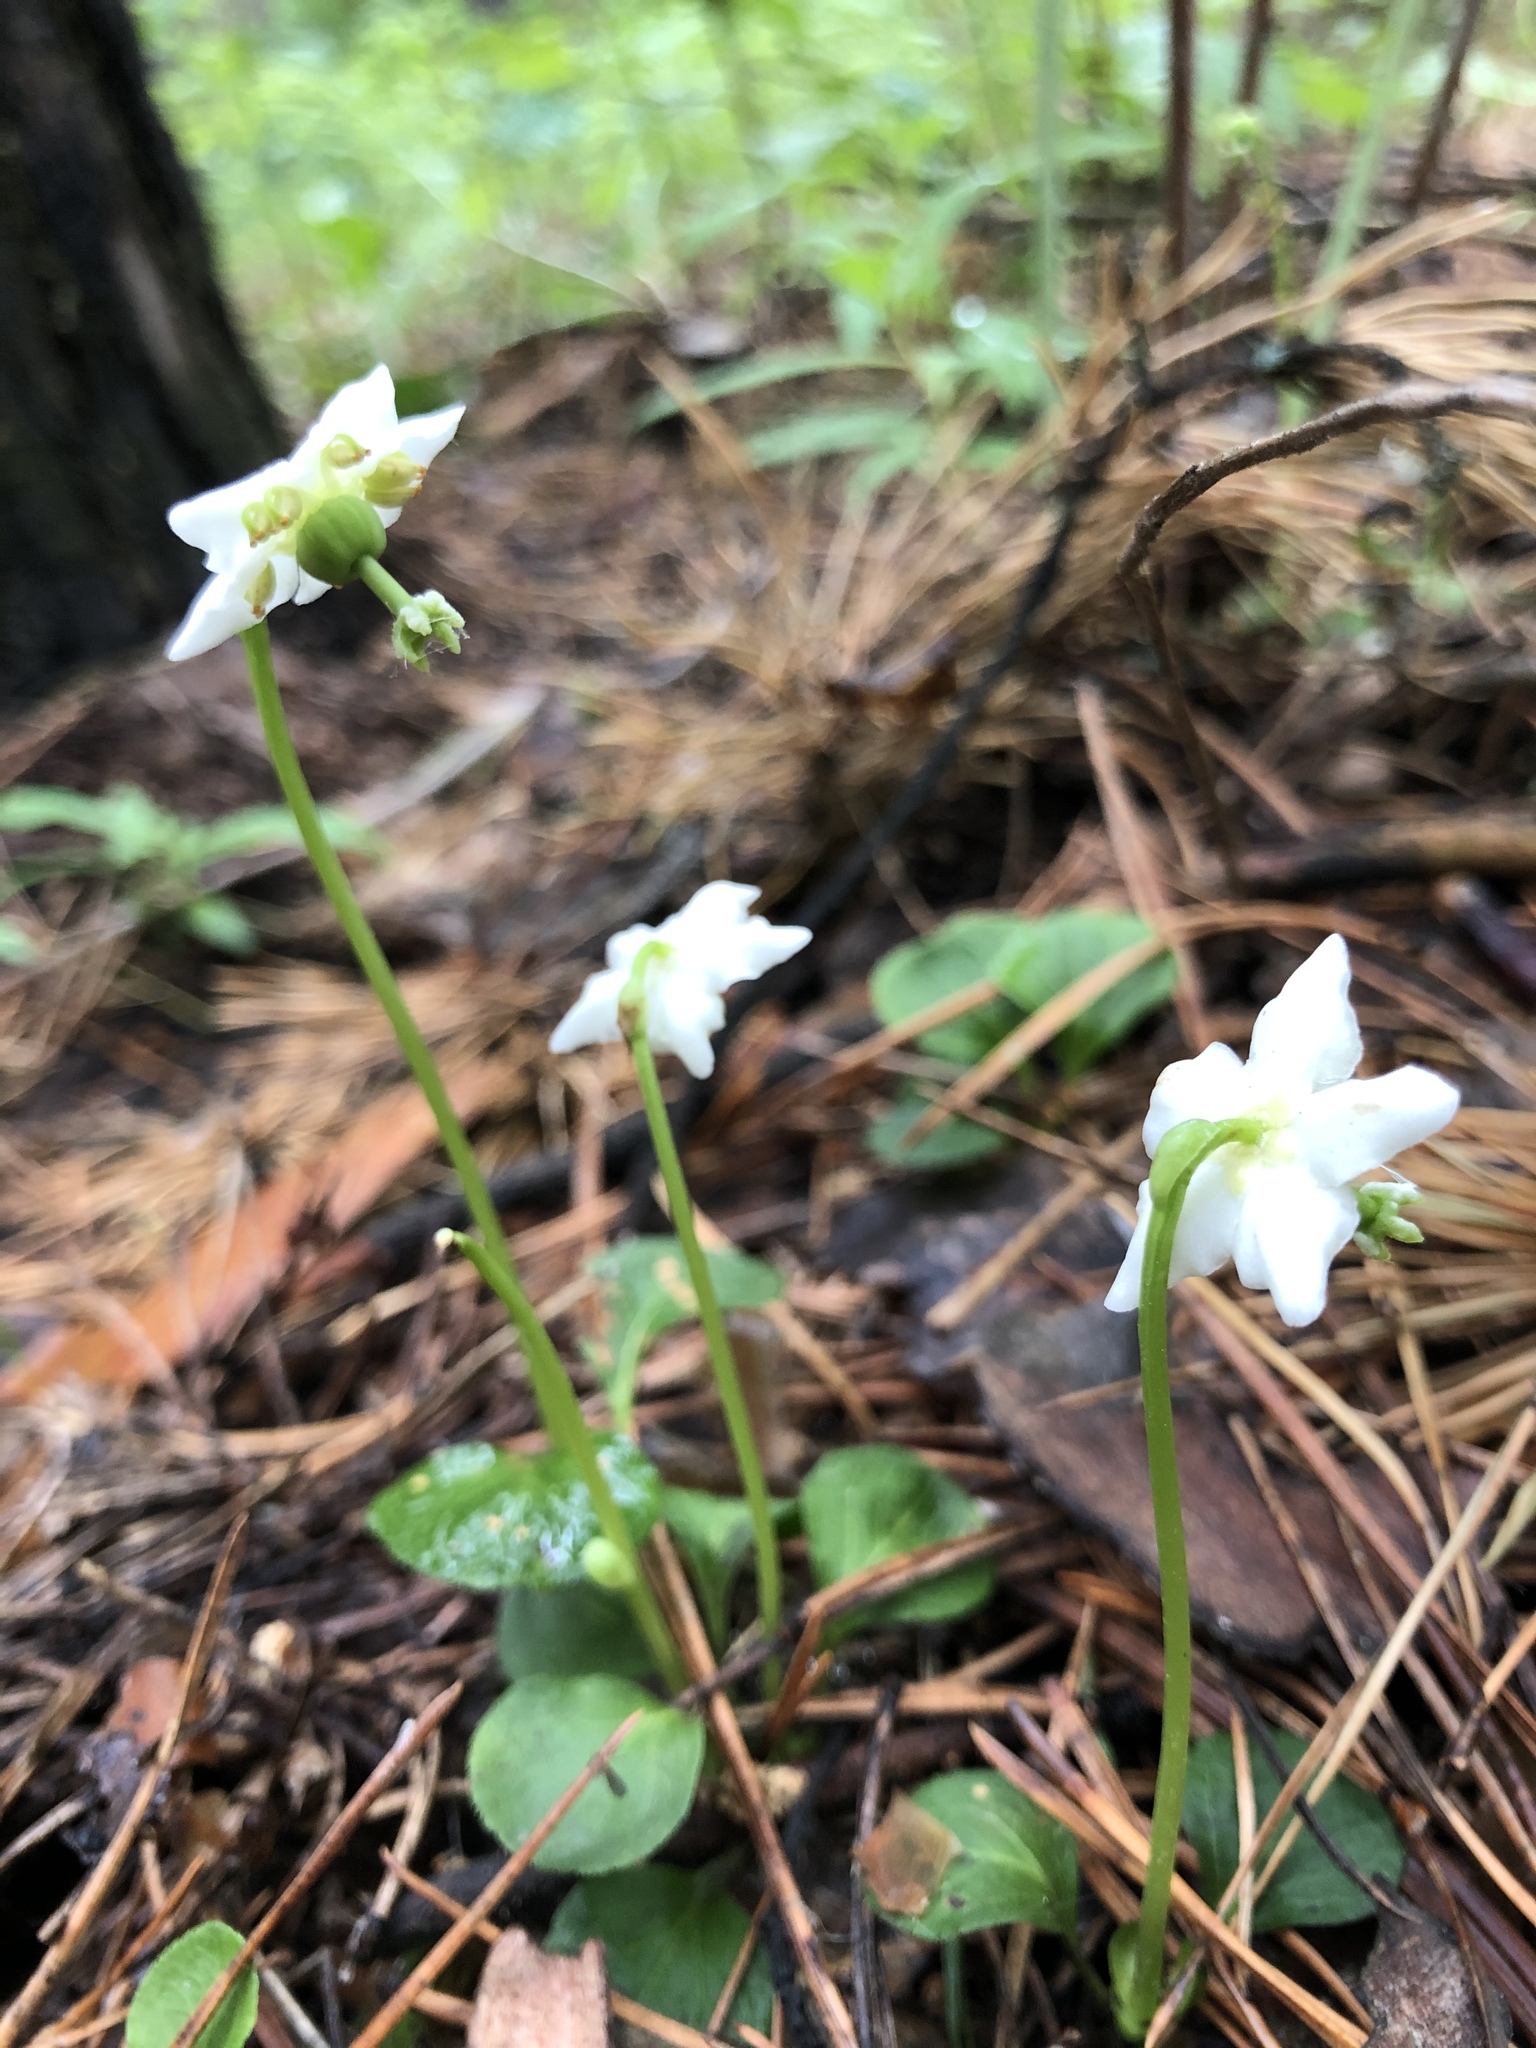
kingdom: Plantae
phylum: Tracheophyta
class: Magnoliopsida
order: Ericales
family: Ericaceae
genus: Moneses
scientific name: Moneses uniflora
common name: One-flowered wintergreen
